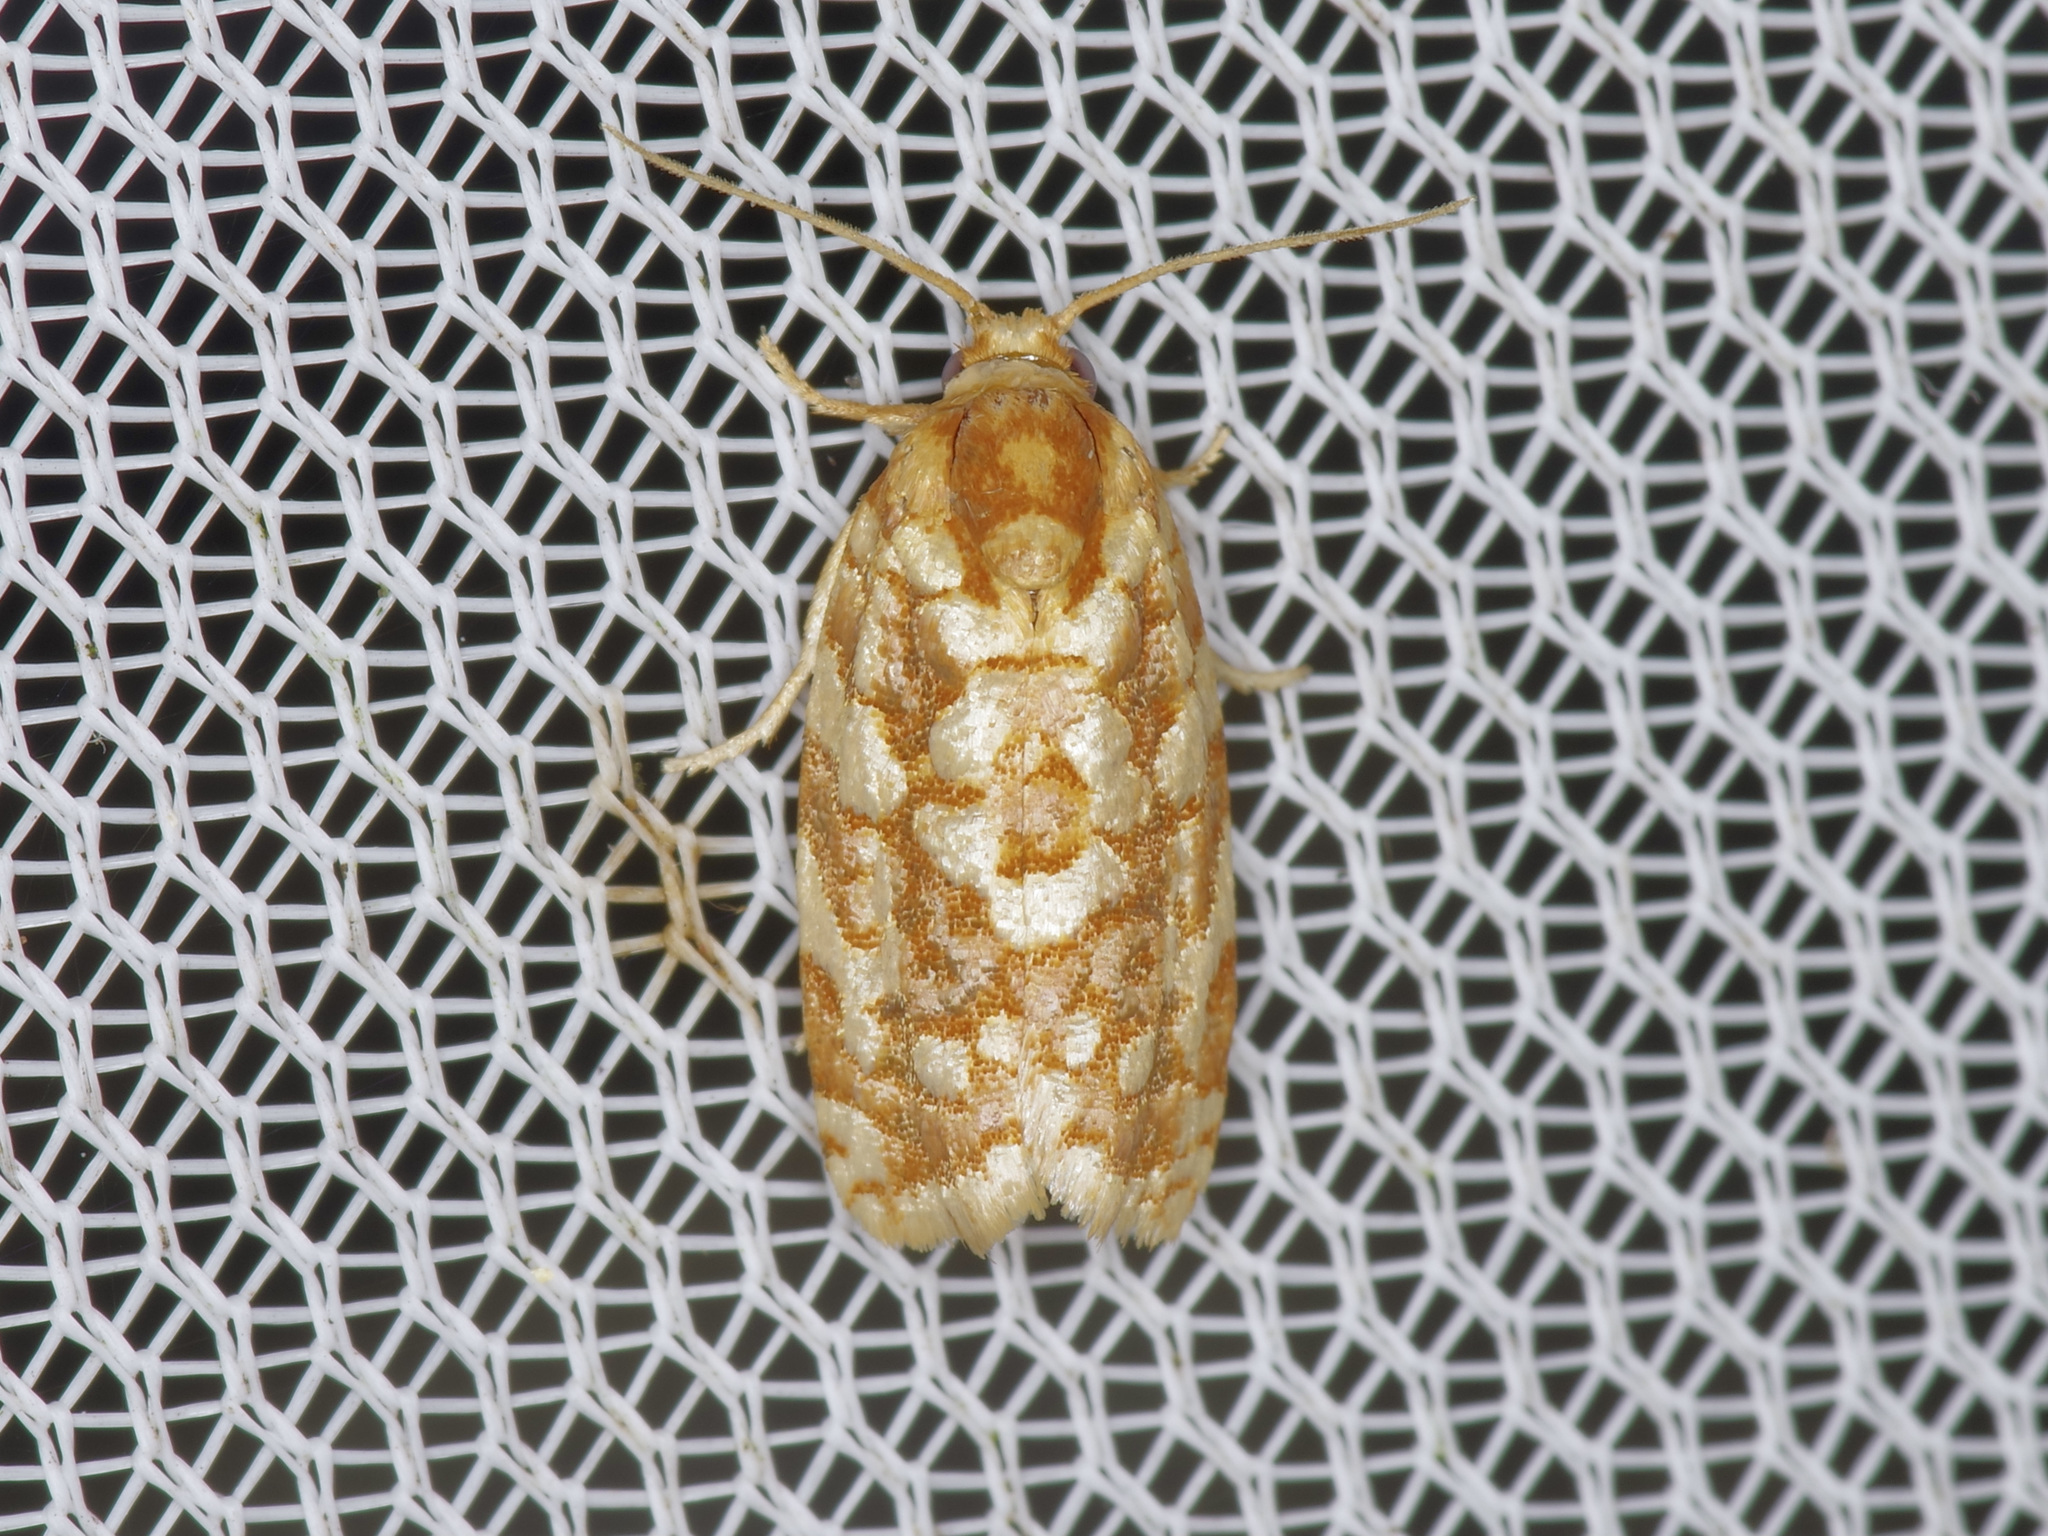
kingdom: Animalia
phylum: Arthropoda
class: Insecta
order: Lepidoptera
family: Tortricidae
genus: Choristoneura
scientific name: Choristoneura houstonana
